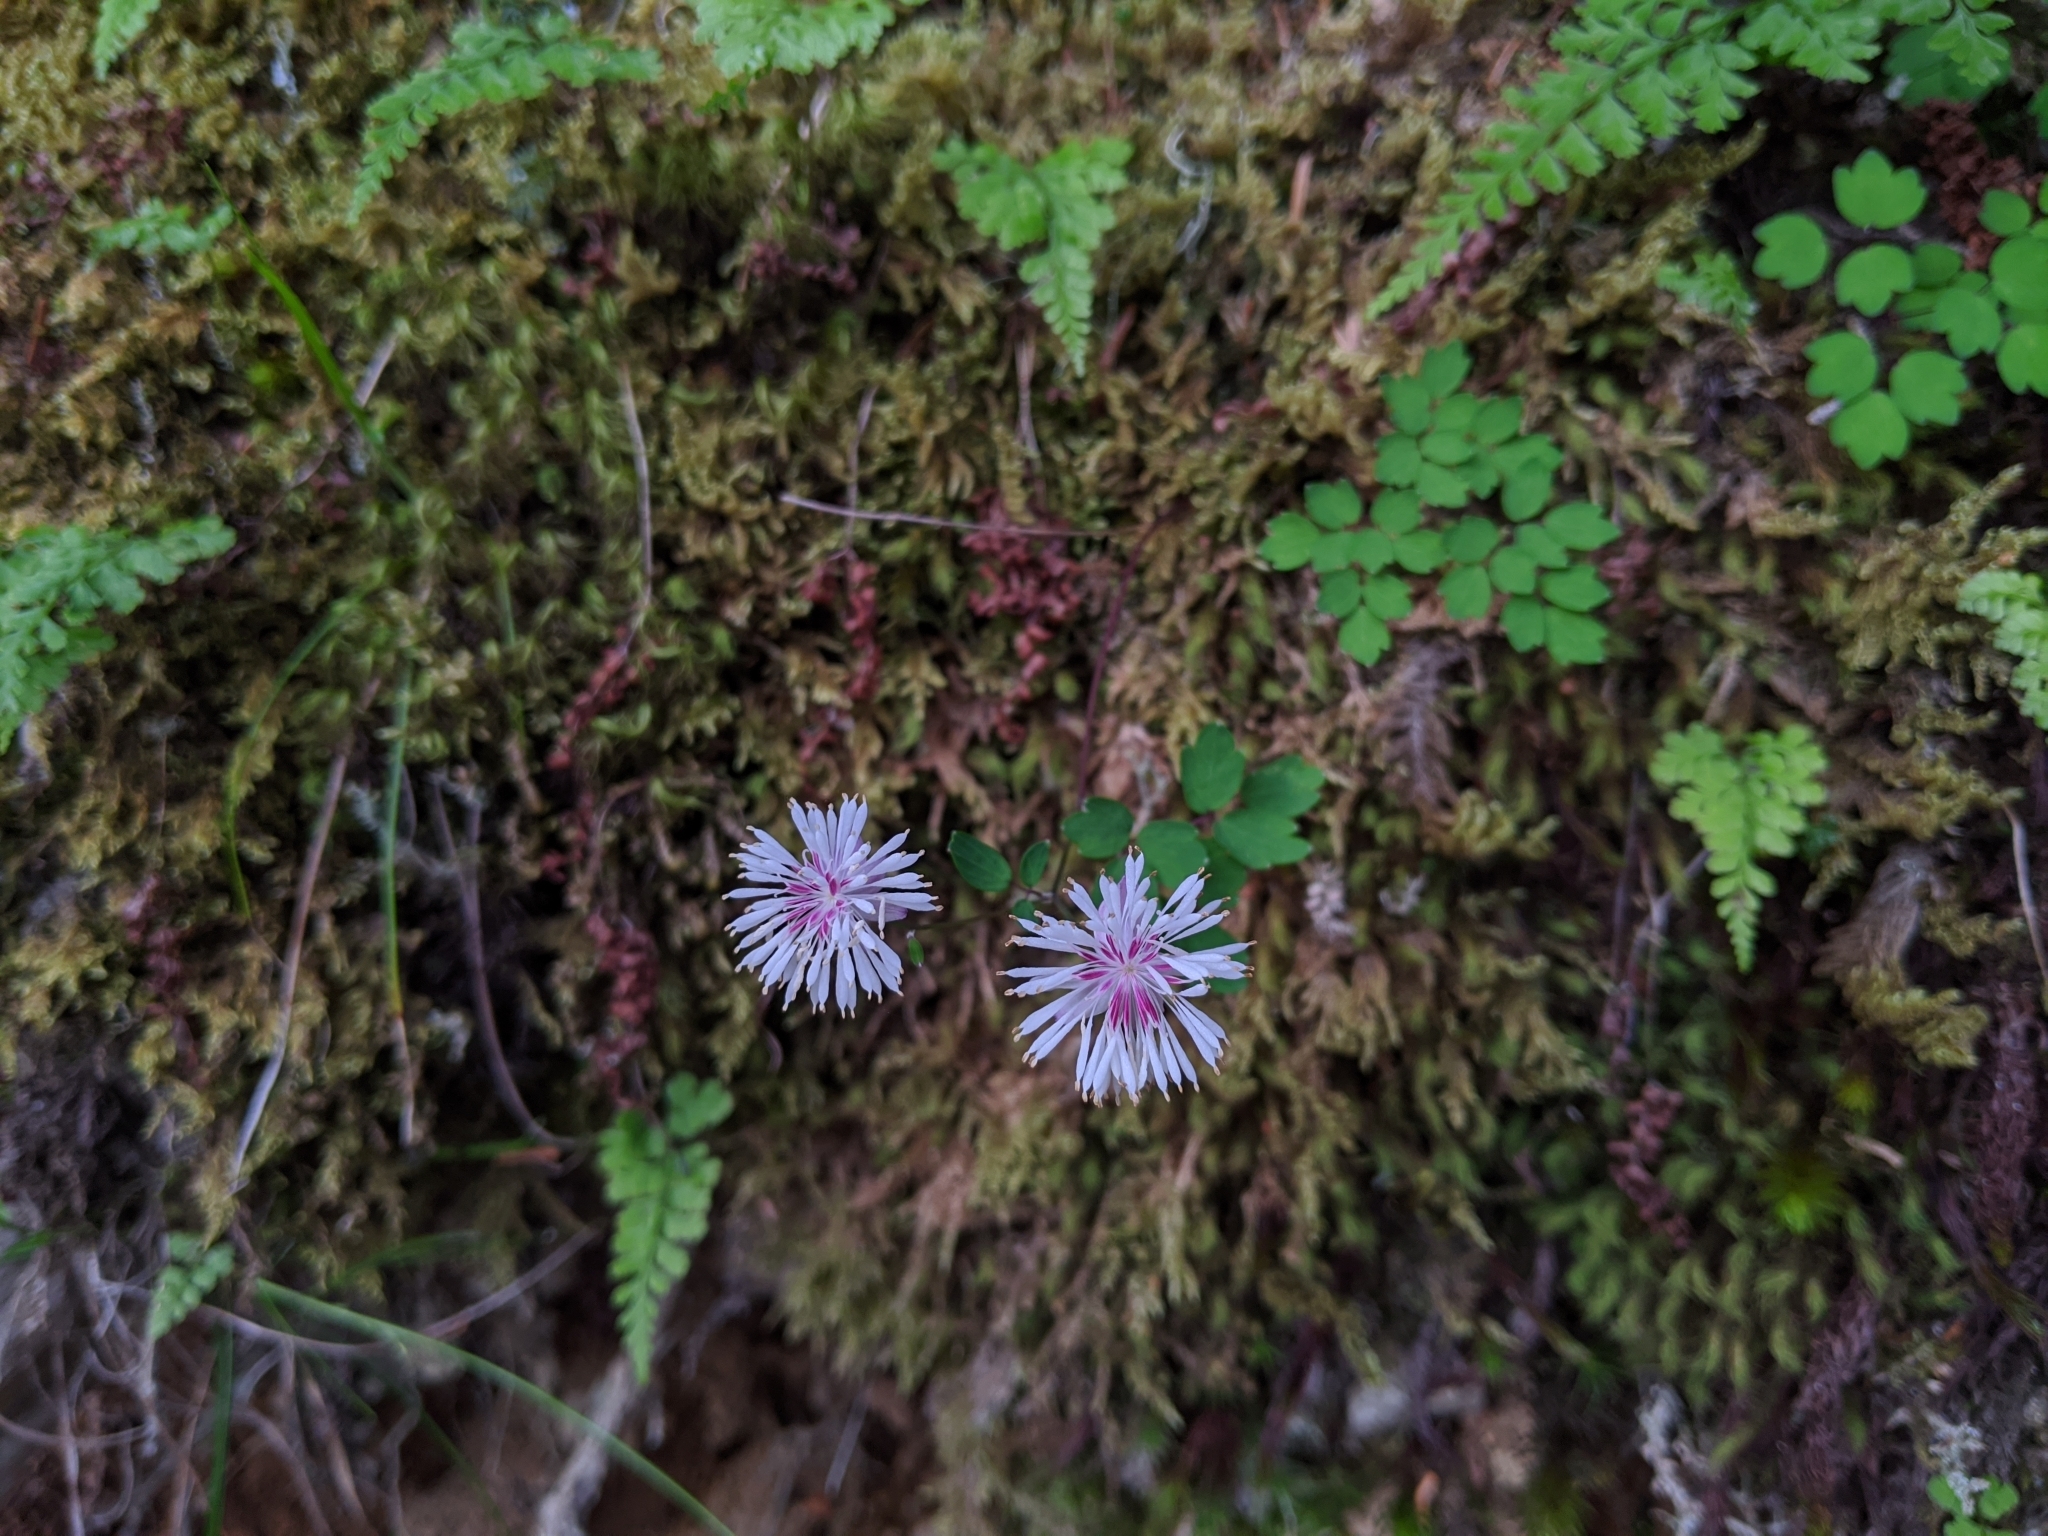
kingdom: Plantae
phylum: Tracheophyta
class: Magnoliopsida
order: Ranunculales
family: Ranunculaceae
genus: Thalictrum
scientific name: Thalictrum rubescens
